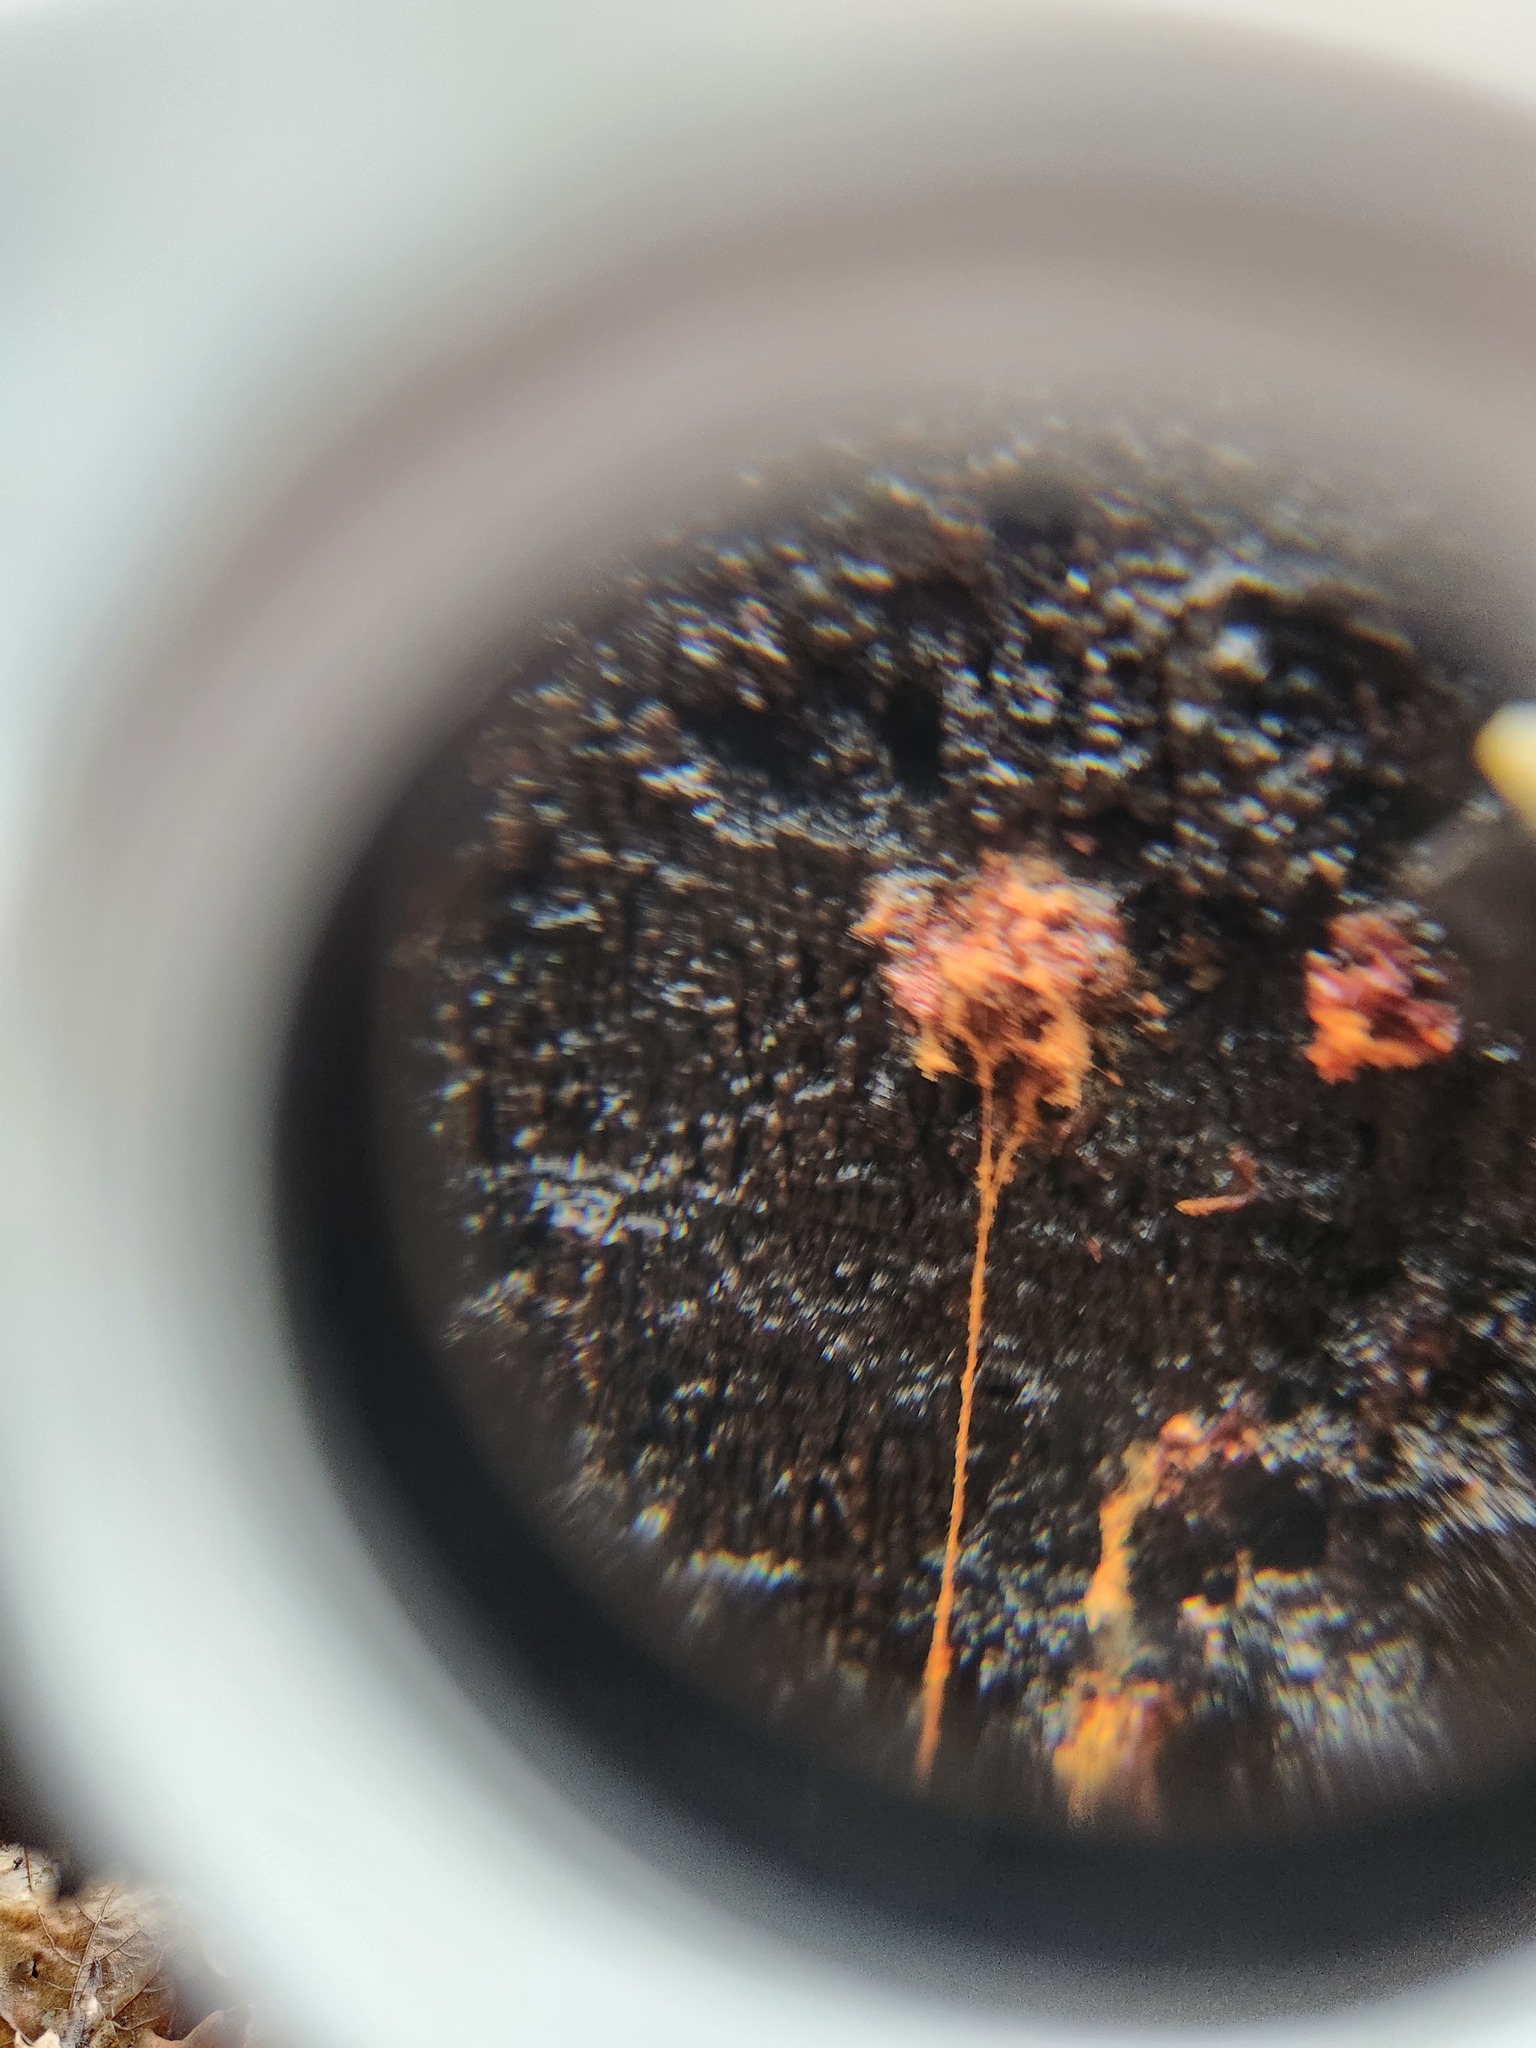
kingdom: Protozoa
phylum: Mycetozoa
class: Myxomycetes
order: Trichiales
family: Trichiaceae
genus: Metatrichia
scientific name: Metatrichia floriformis
